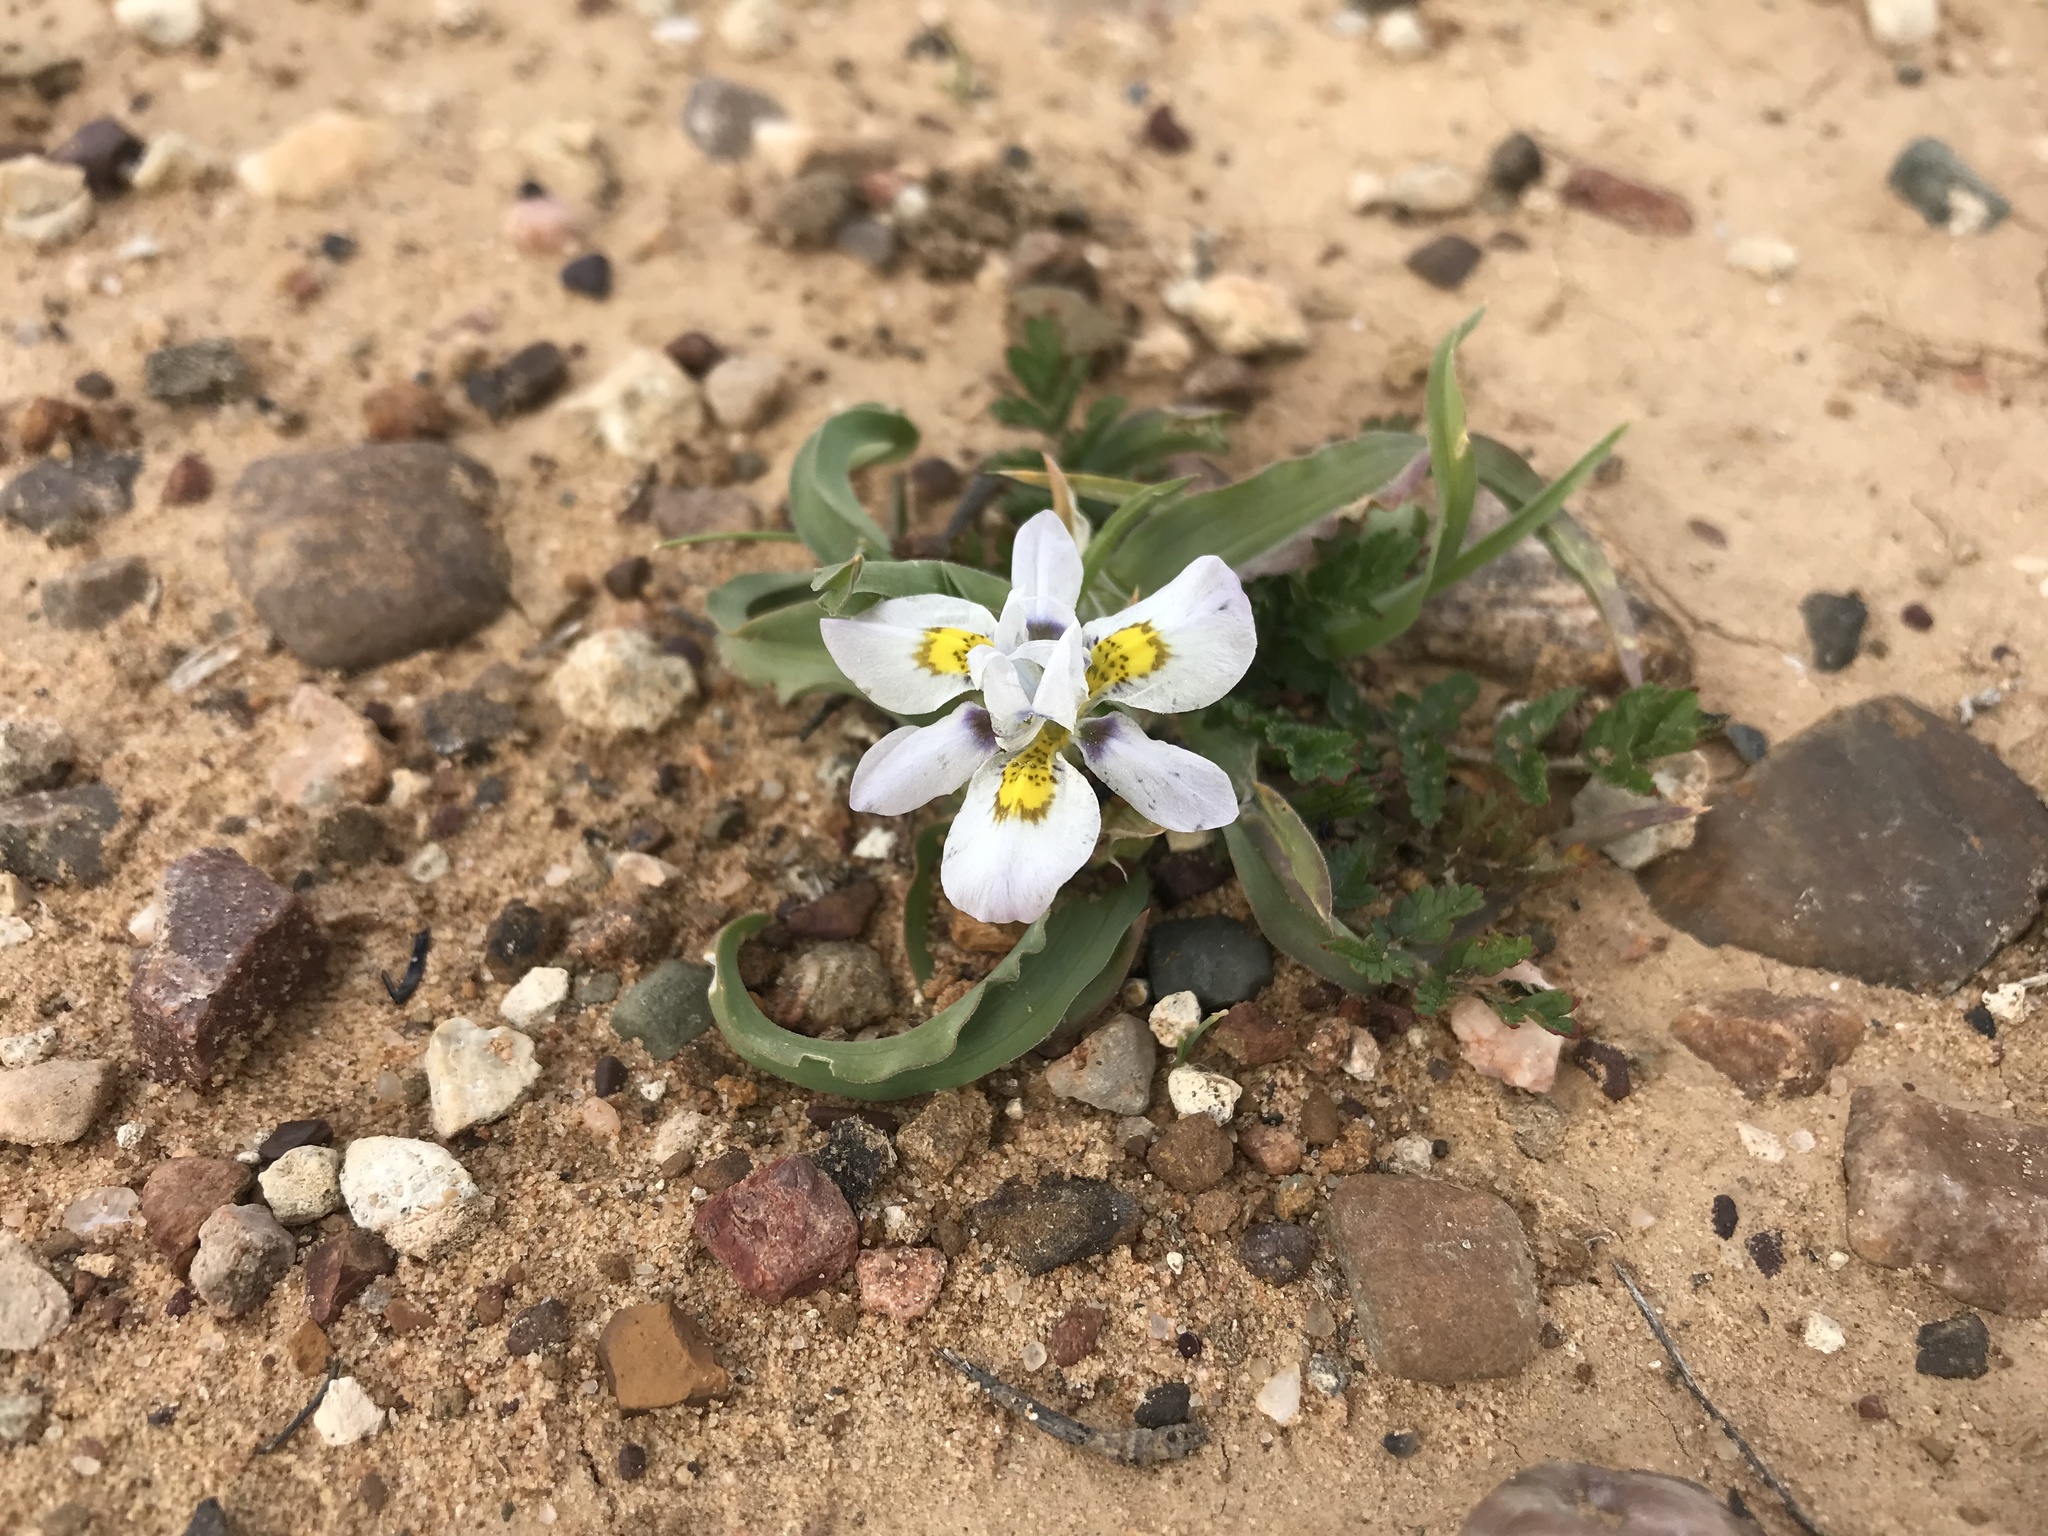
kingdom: Plantae
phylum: Tracheophyta
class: Liliopsida
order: Asparagales
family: Iridaceae
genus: Moraea
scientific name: Moraea falcifolia
